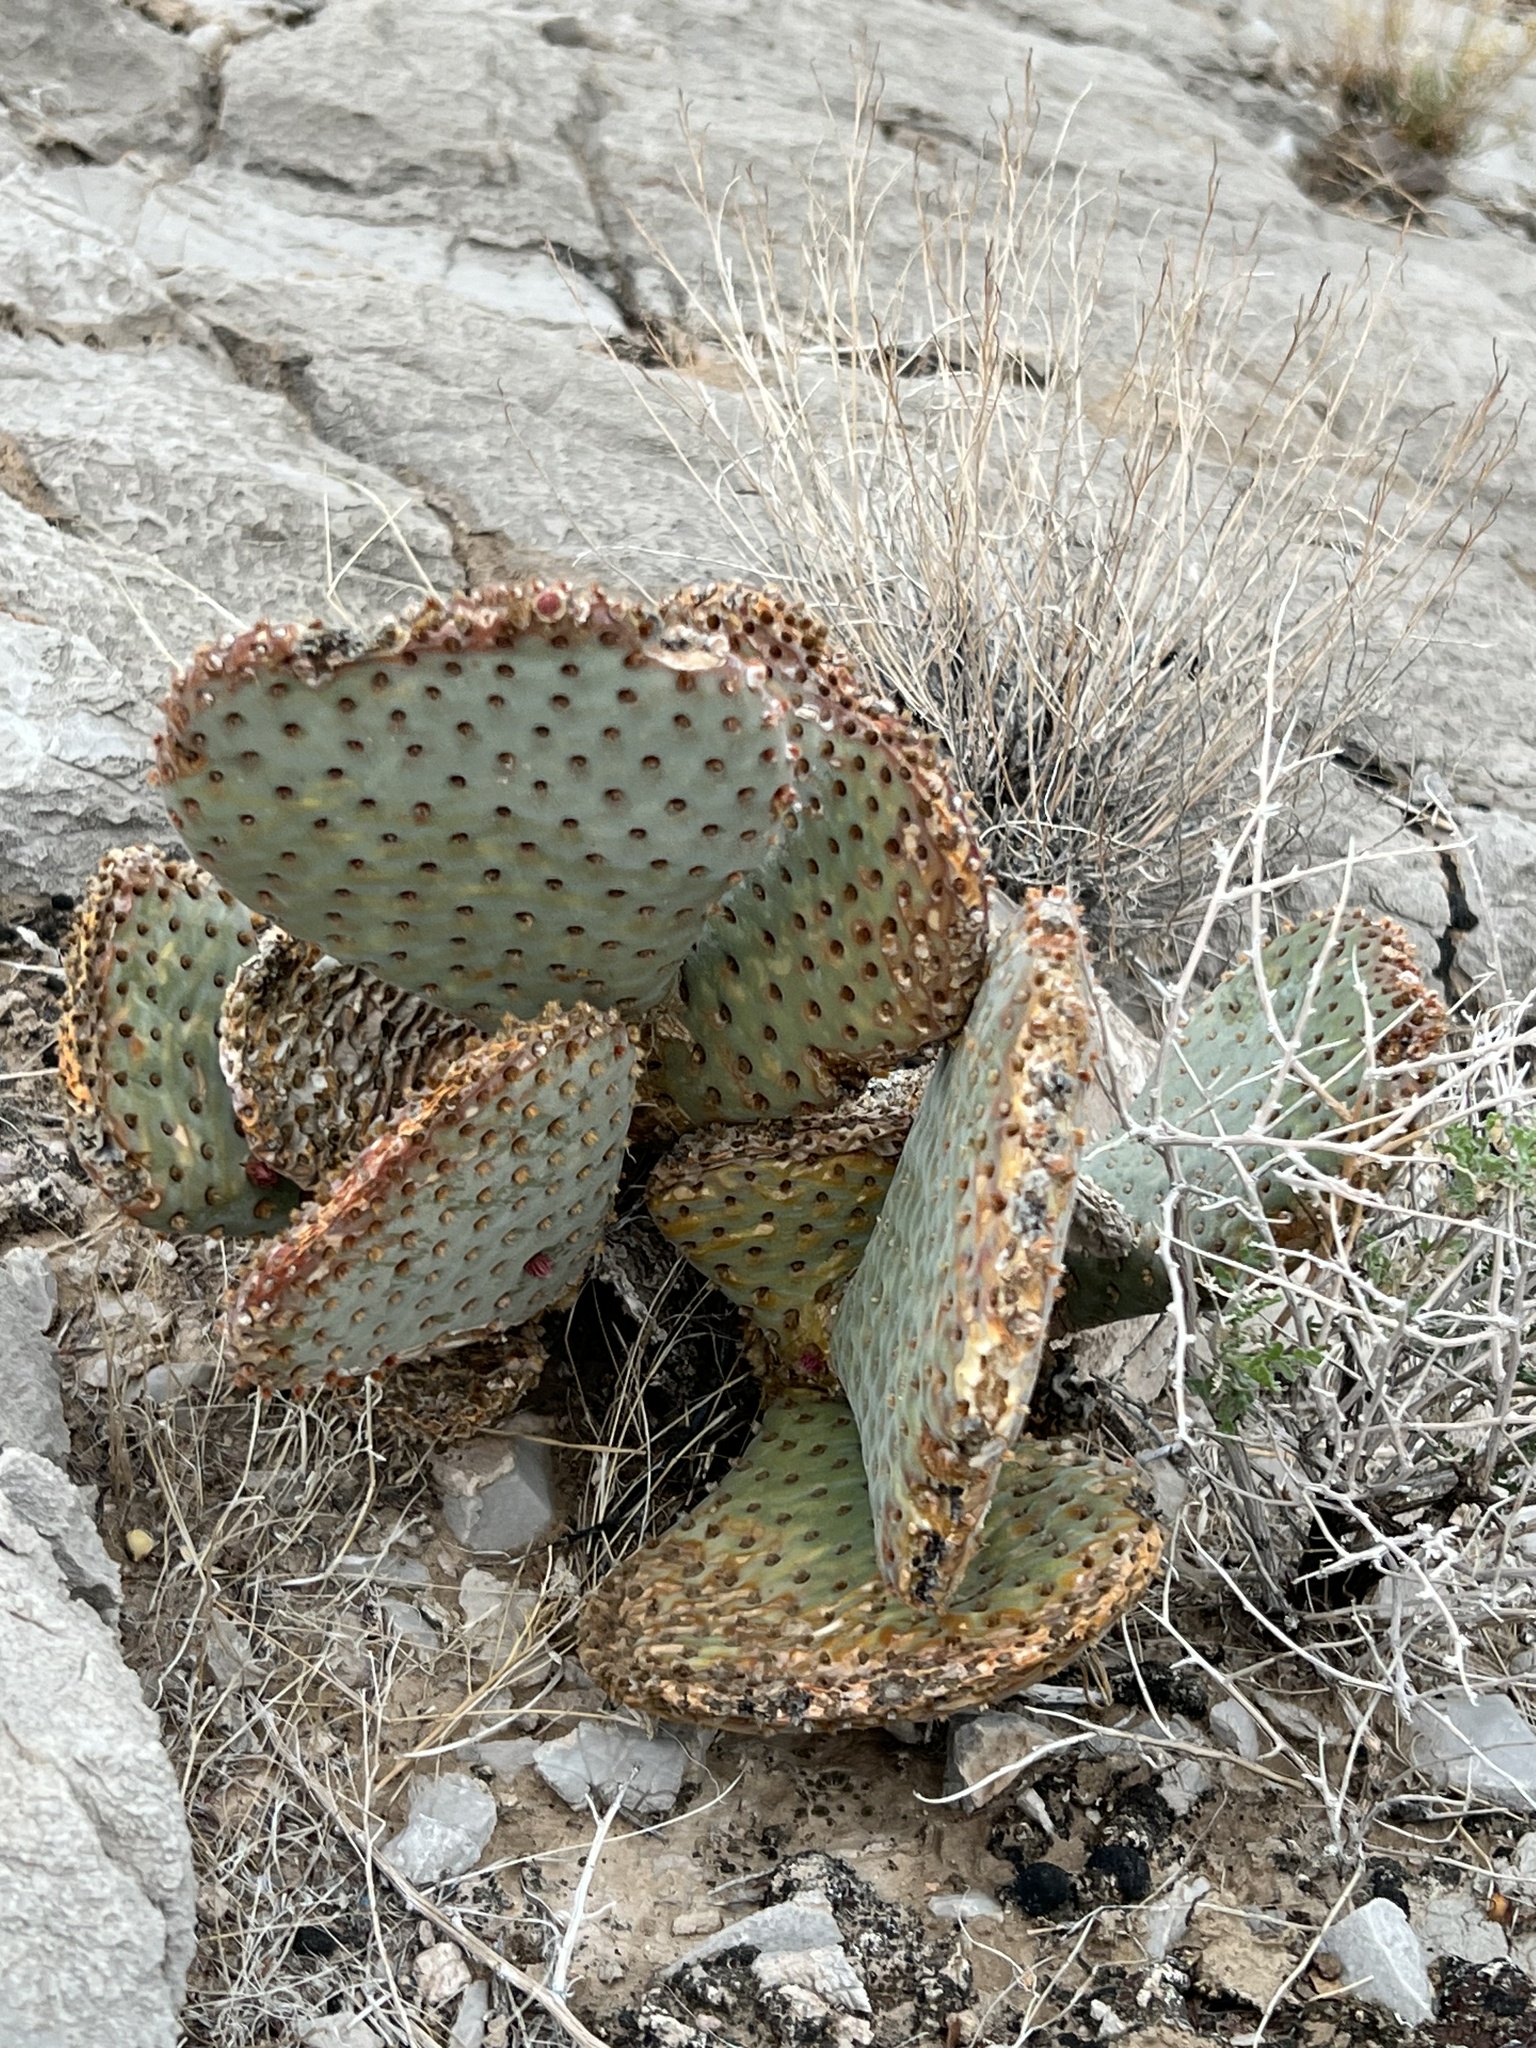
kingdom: Plantae
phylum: Tracheophyta
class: Magnoliopsida
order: Caryophyllales
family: Cactaceae
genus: Opuntia
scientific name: Opuntia basilaris
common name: Beavertail prickly-pear
